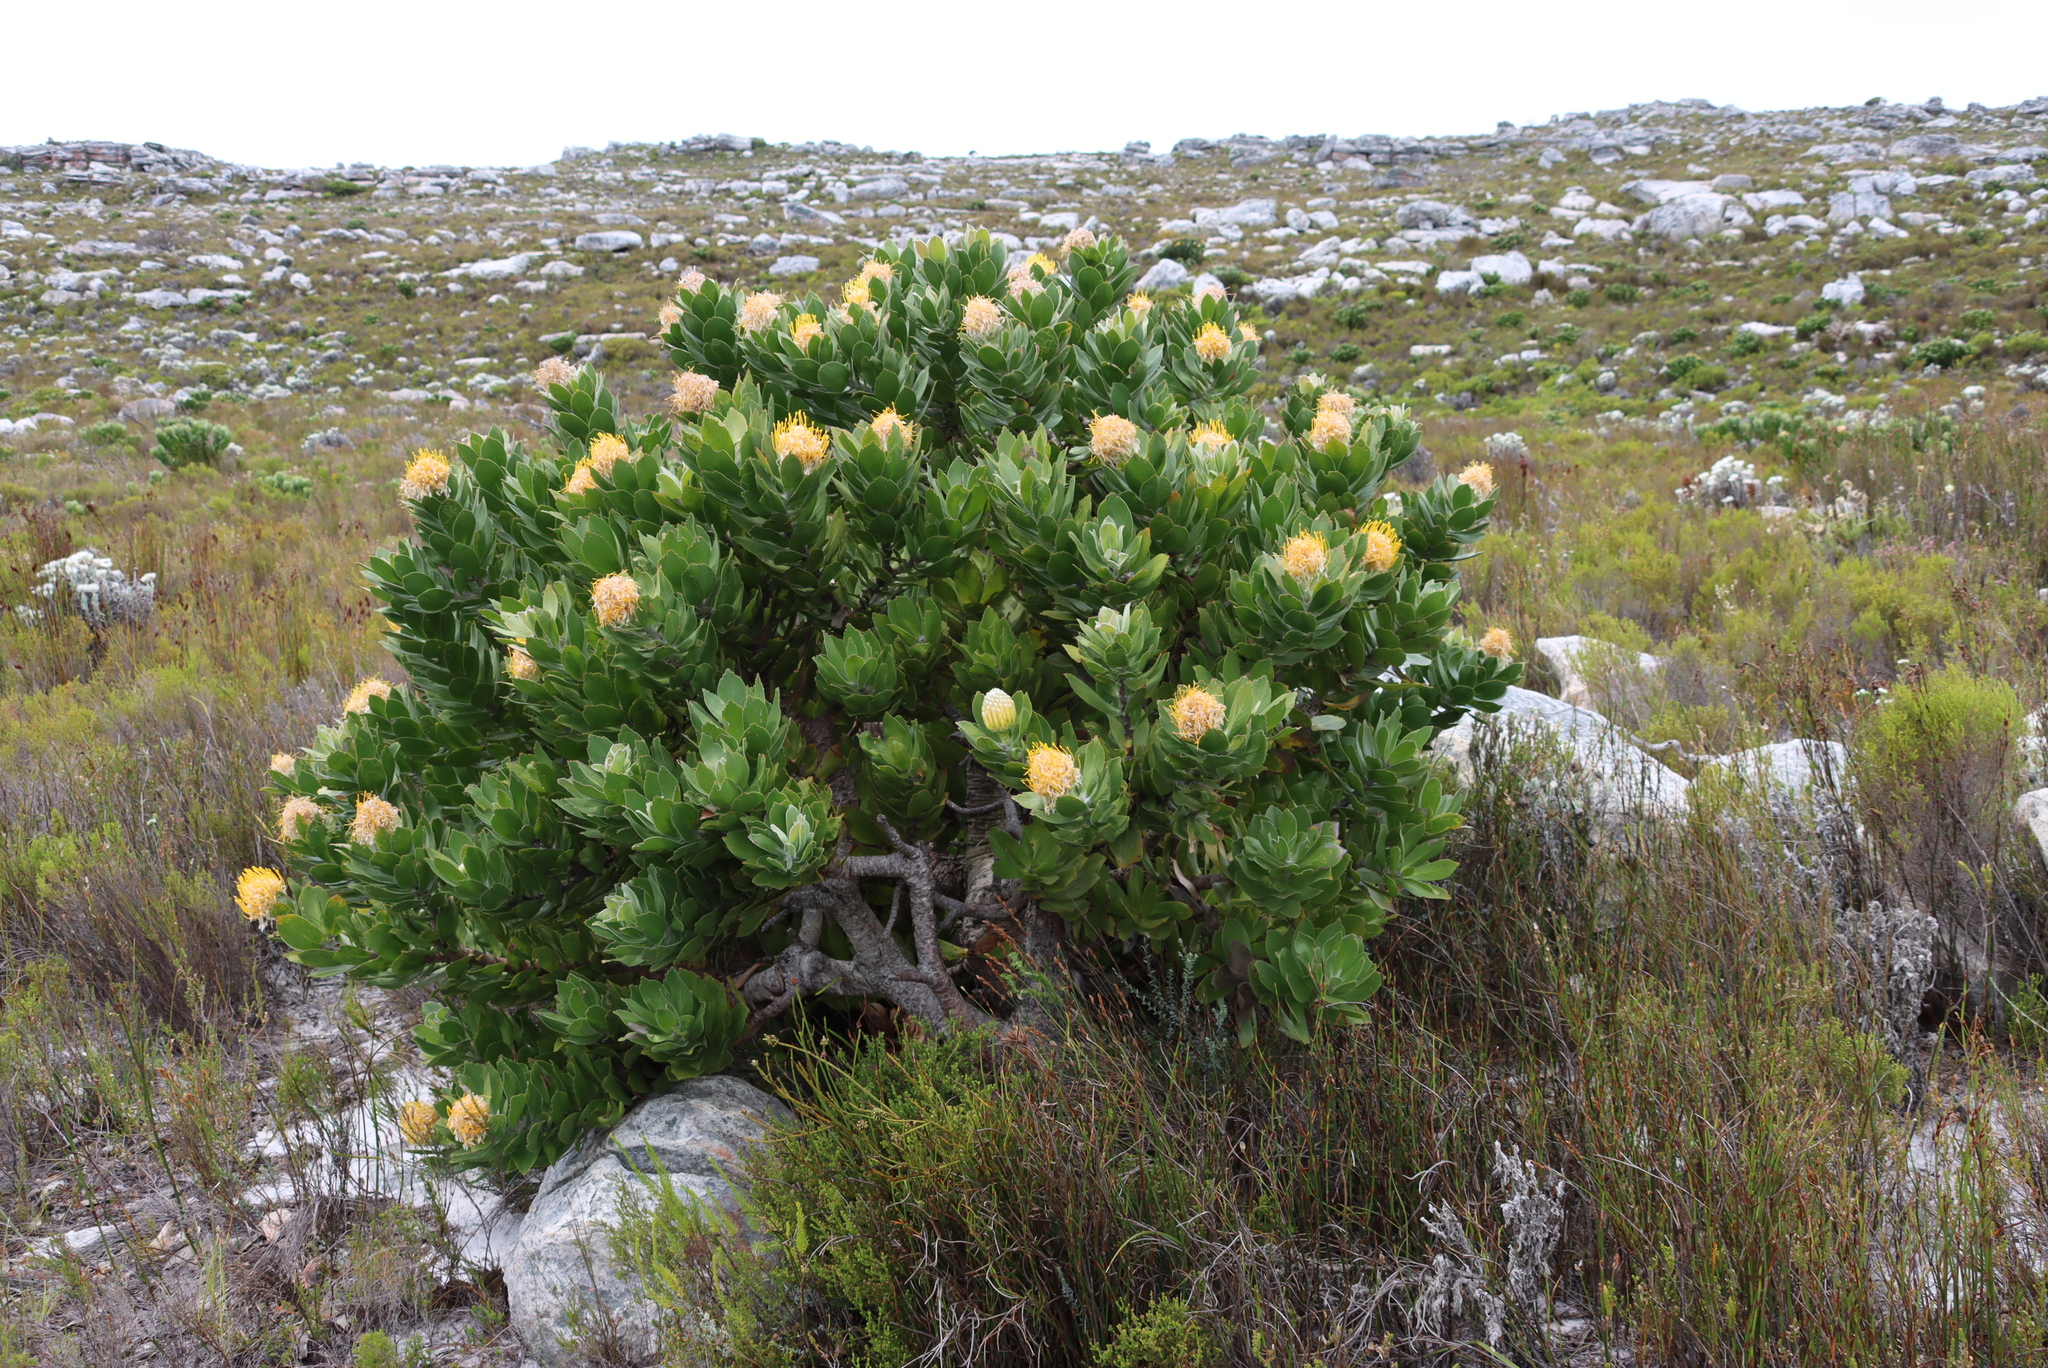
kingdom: Plantae
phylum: Tracheophyta
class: Magnoliopsida
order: Proteales
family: Proteaceae
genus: Leucospermum
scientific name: Leucospermum conocarpodendron
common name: Tree pincushion
